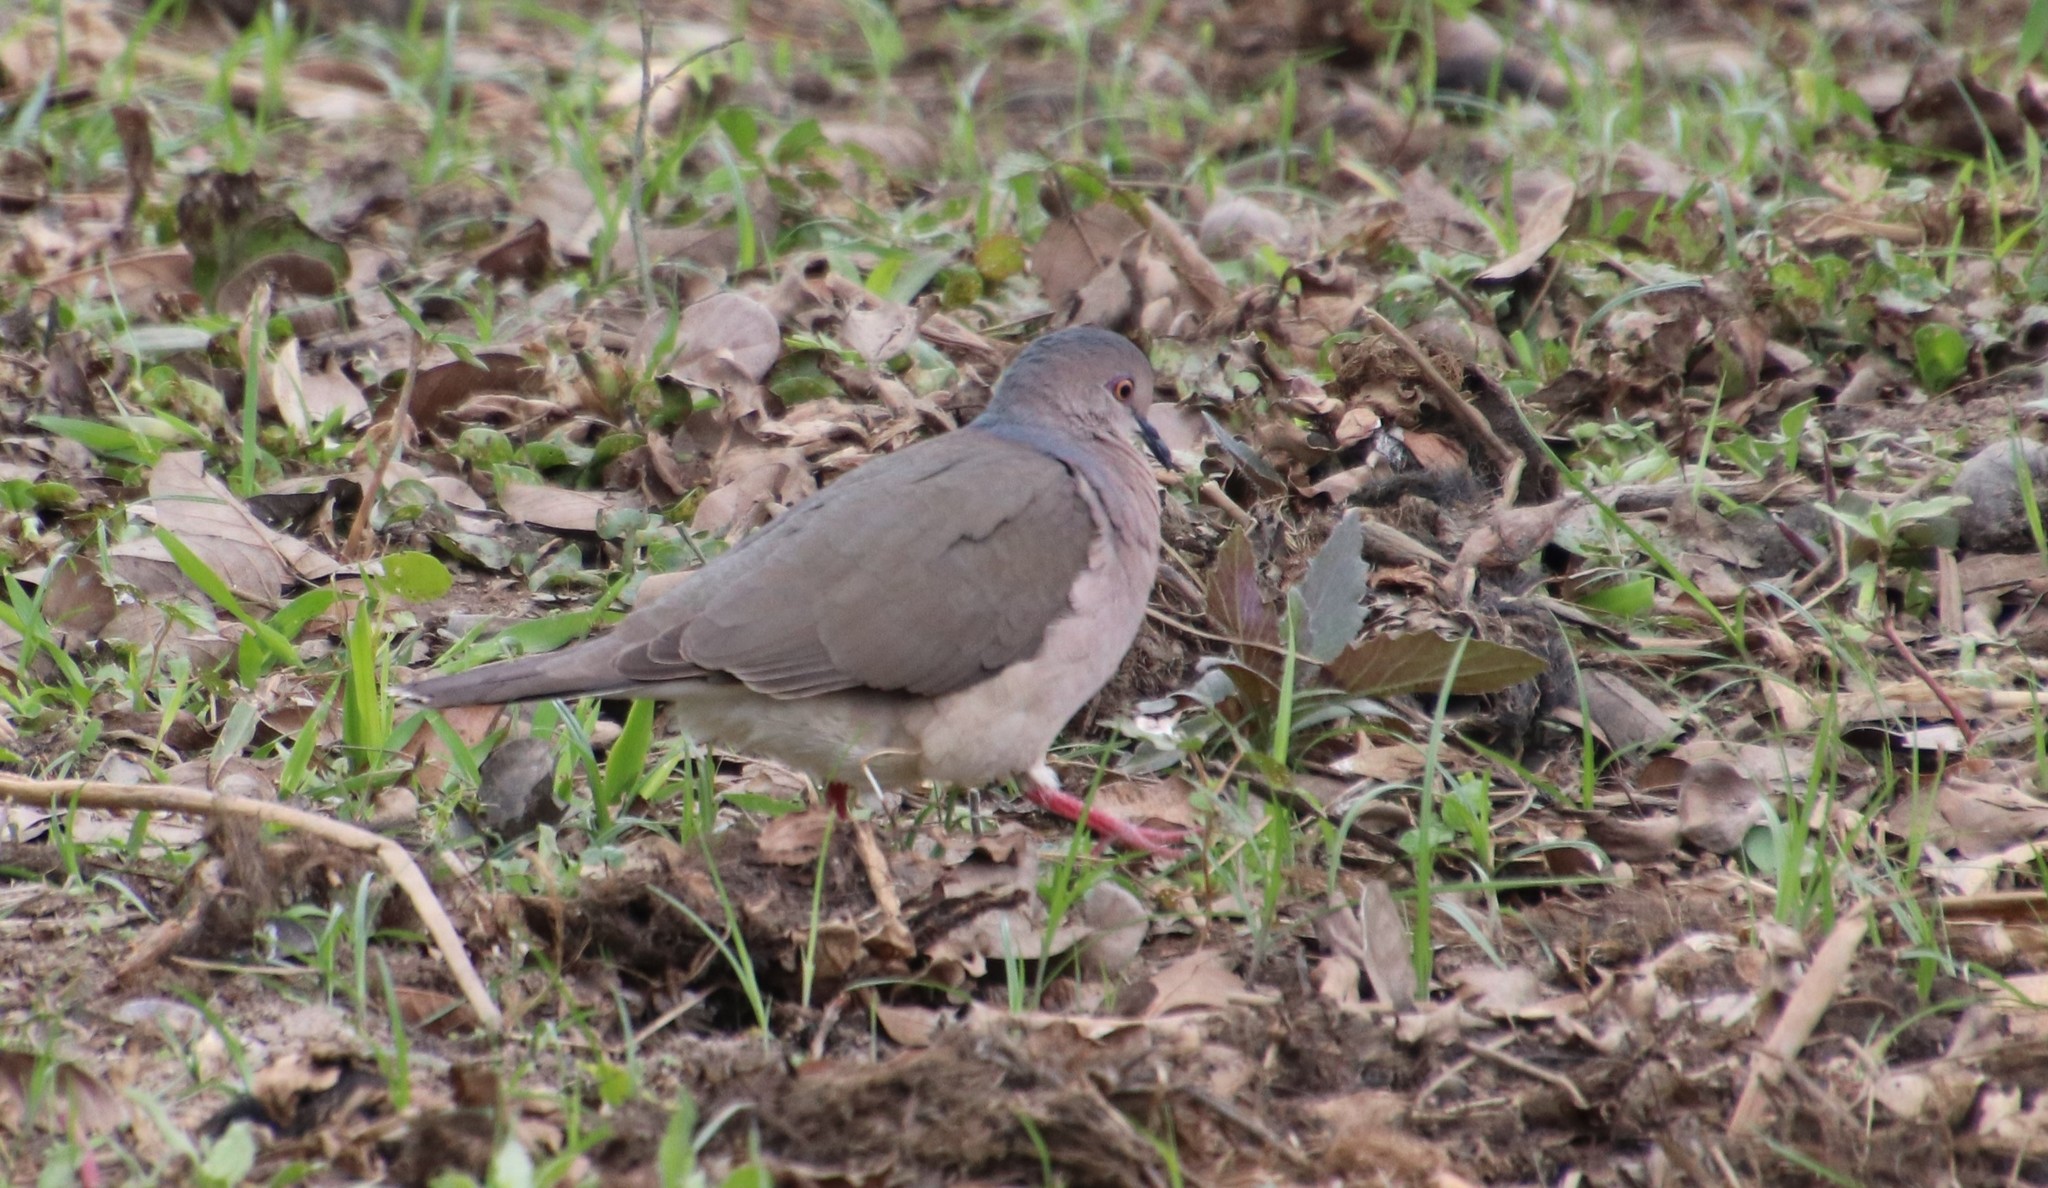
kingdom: Animalia
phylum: Chordata
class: Aves
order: Columbiformes
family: Columbidae
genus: Leptotila
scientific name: Leptotila verreauxi
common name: White-tipped dove
